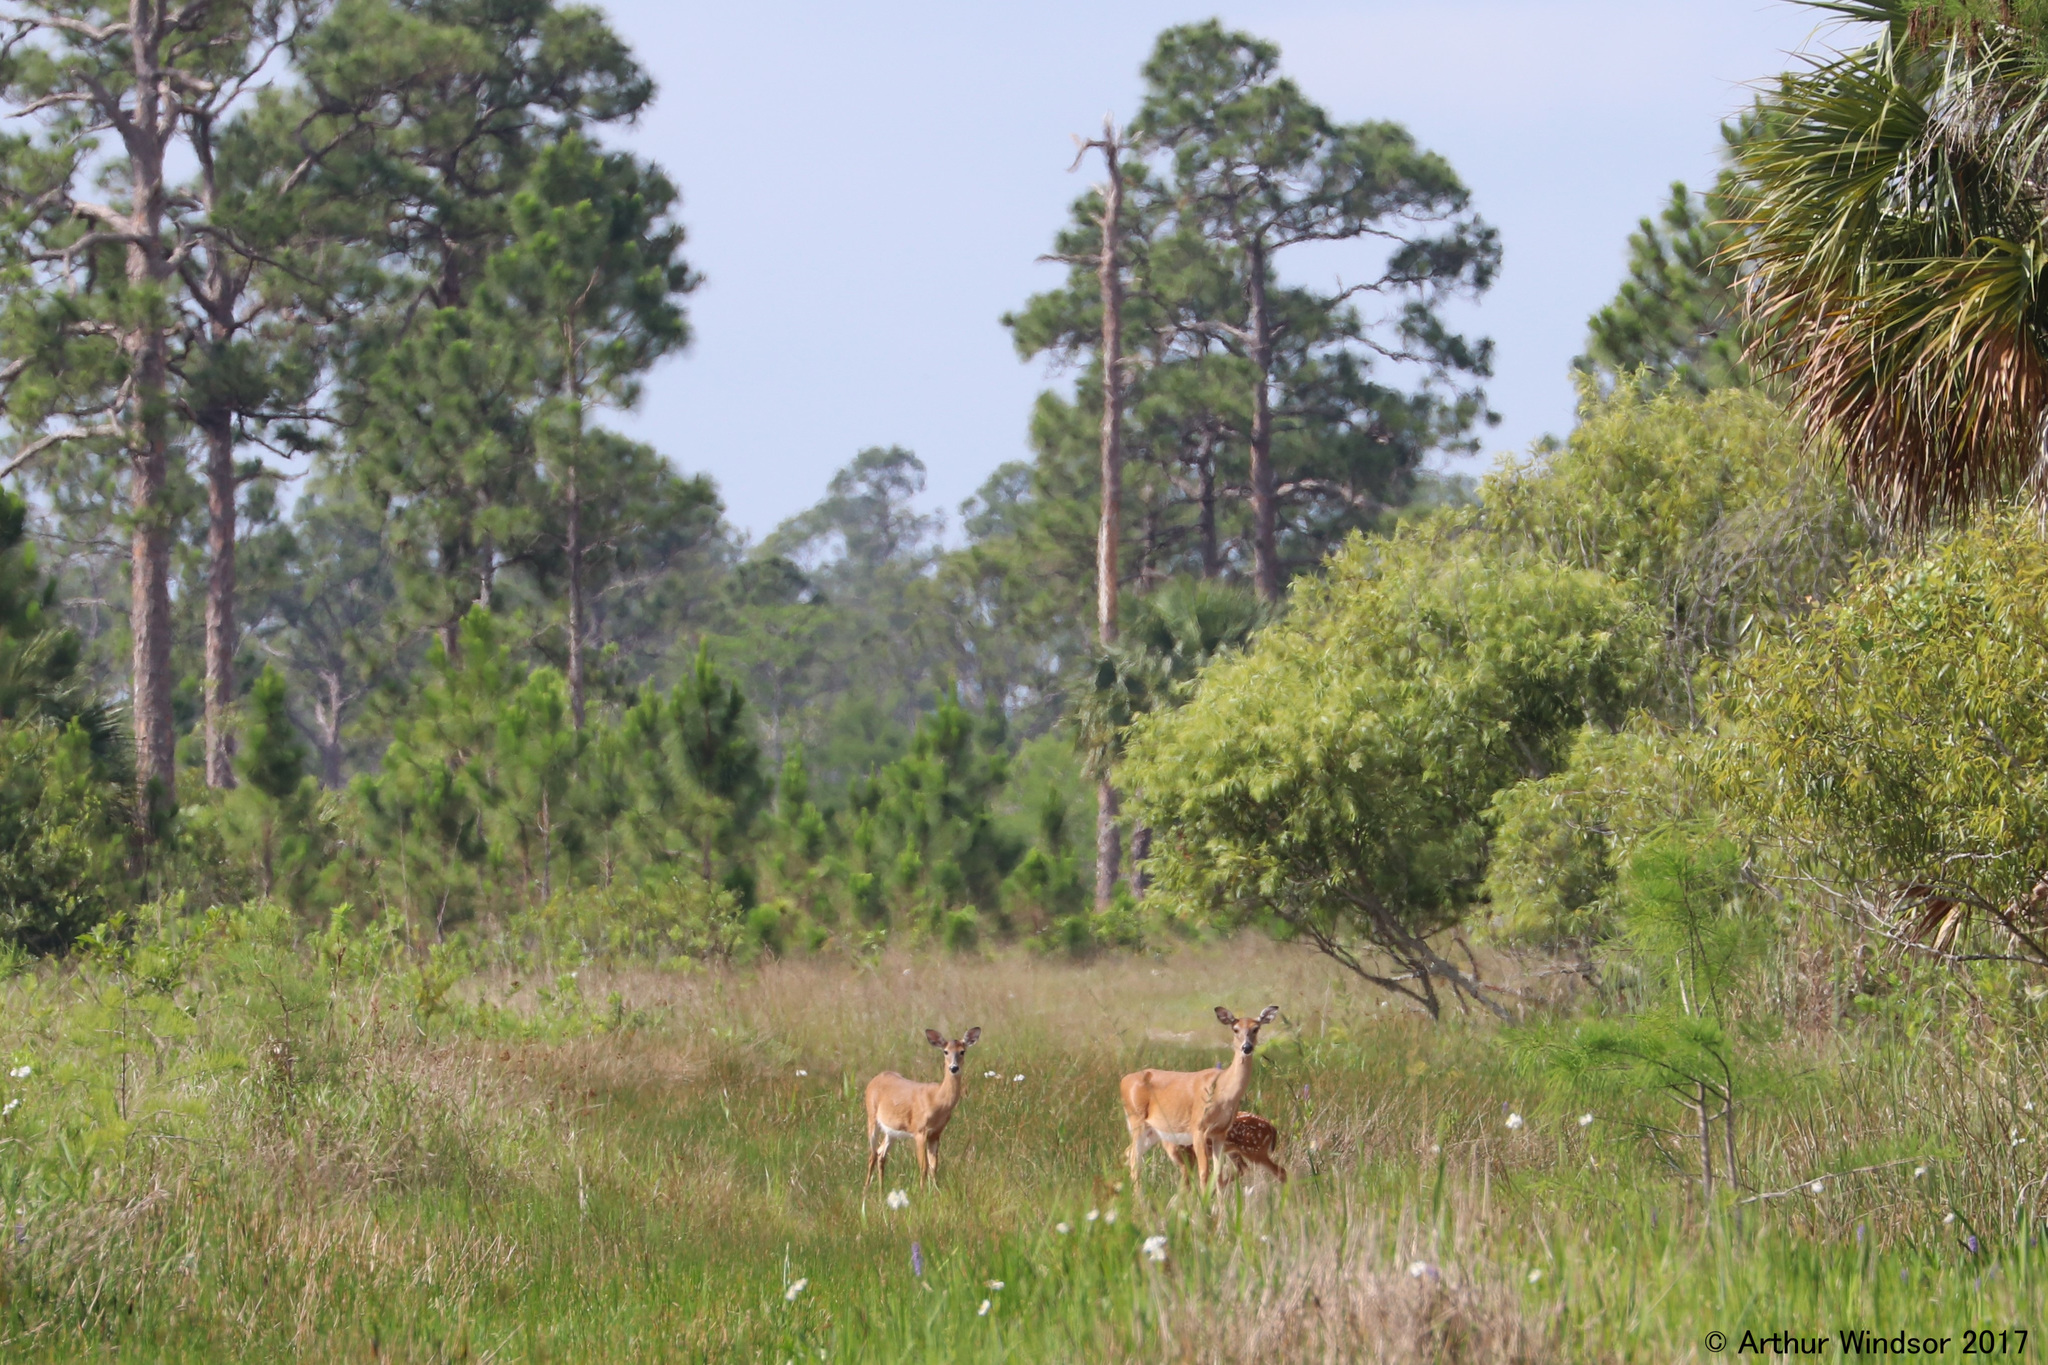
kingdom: Animalia
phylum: Chordata
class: Mammalia
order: Artiodactyla
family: Cervidae
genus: Odocoileus
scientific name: Odocoileus virginianus
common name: White-tailed deer
